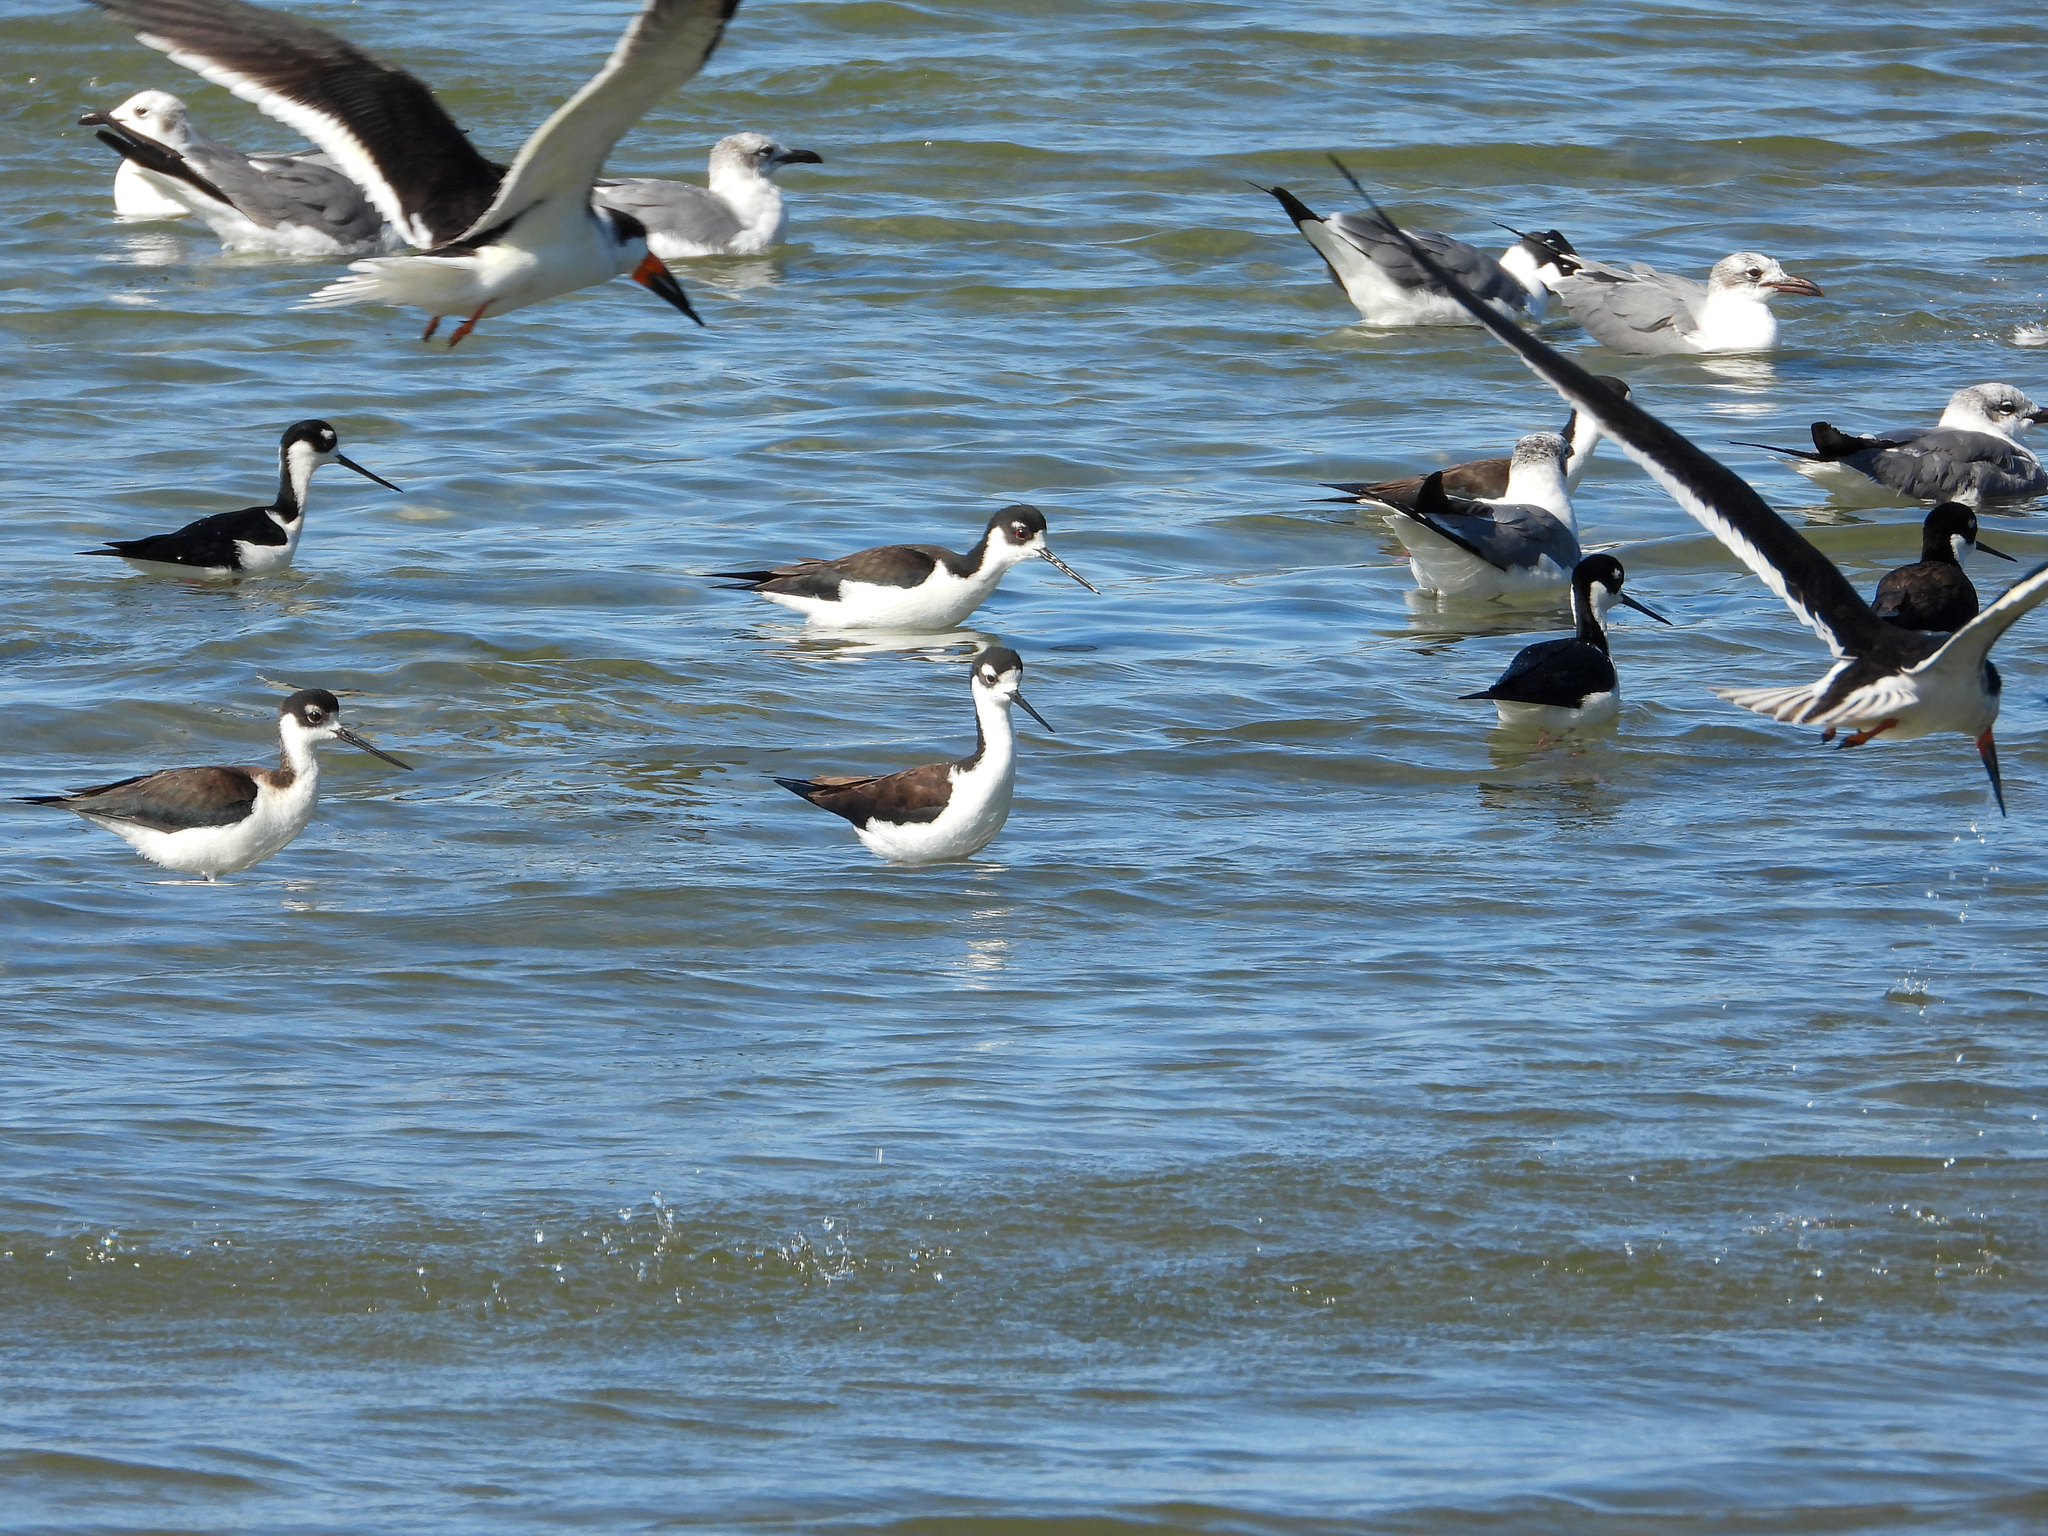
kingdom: Animalia
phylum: Chordata
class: Aves
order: Charadriiformes
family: Recurvirostridae
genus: Himantopus
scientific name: Himantopus mexicanus
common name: Black-necked stilt
